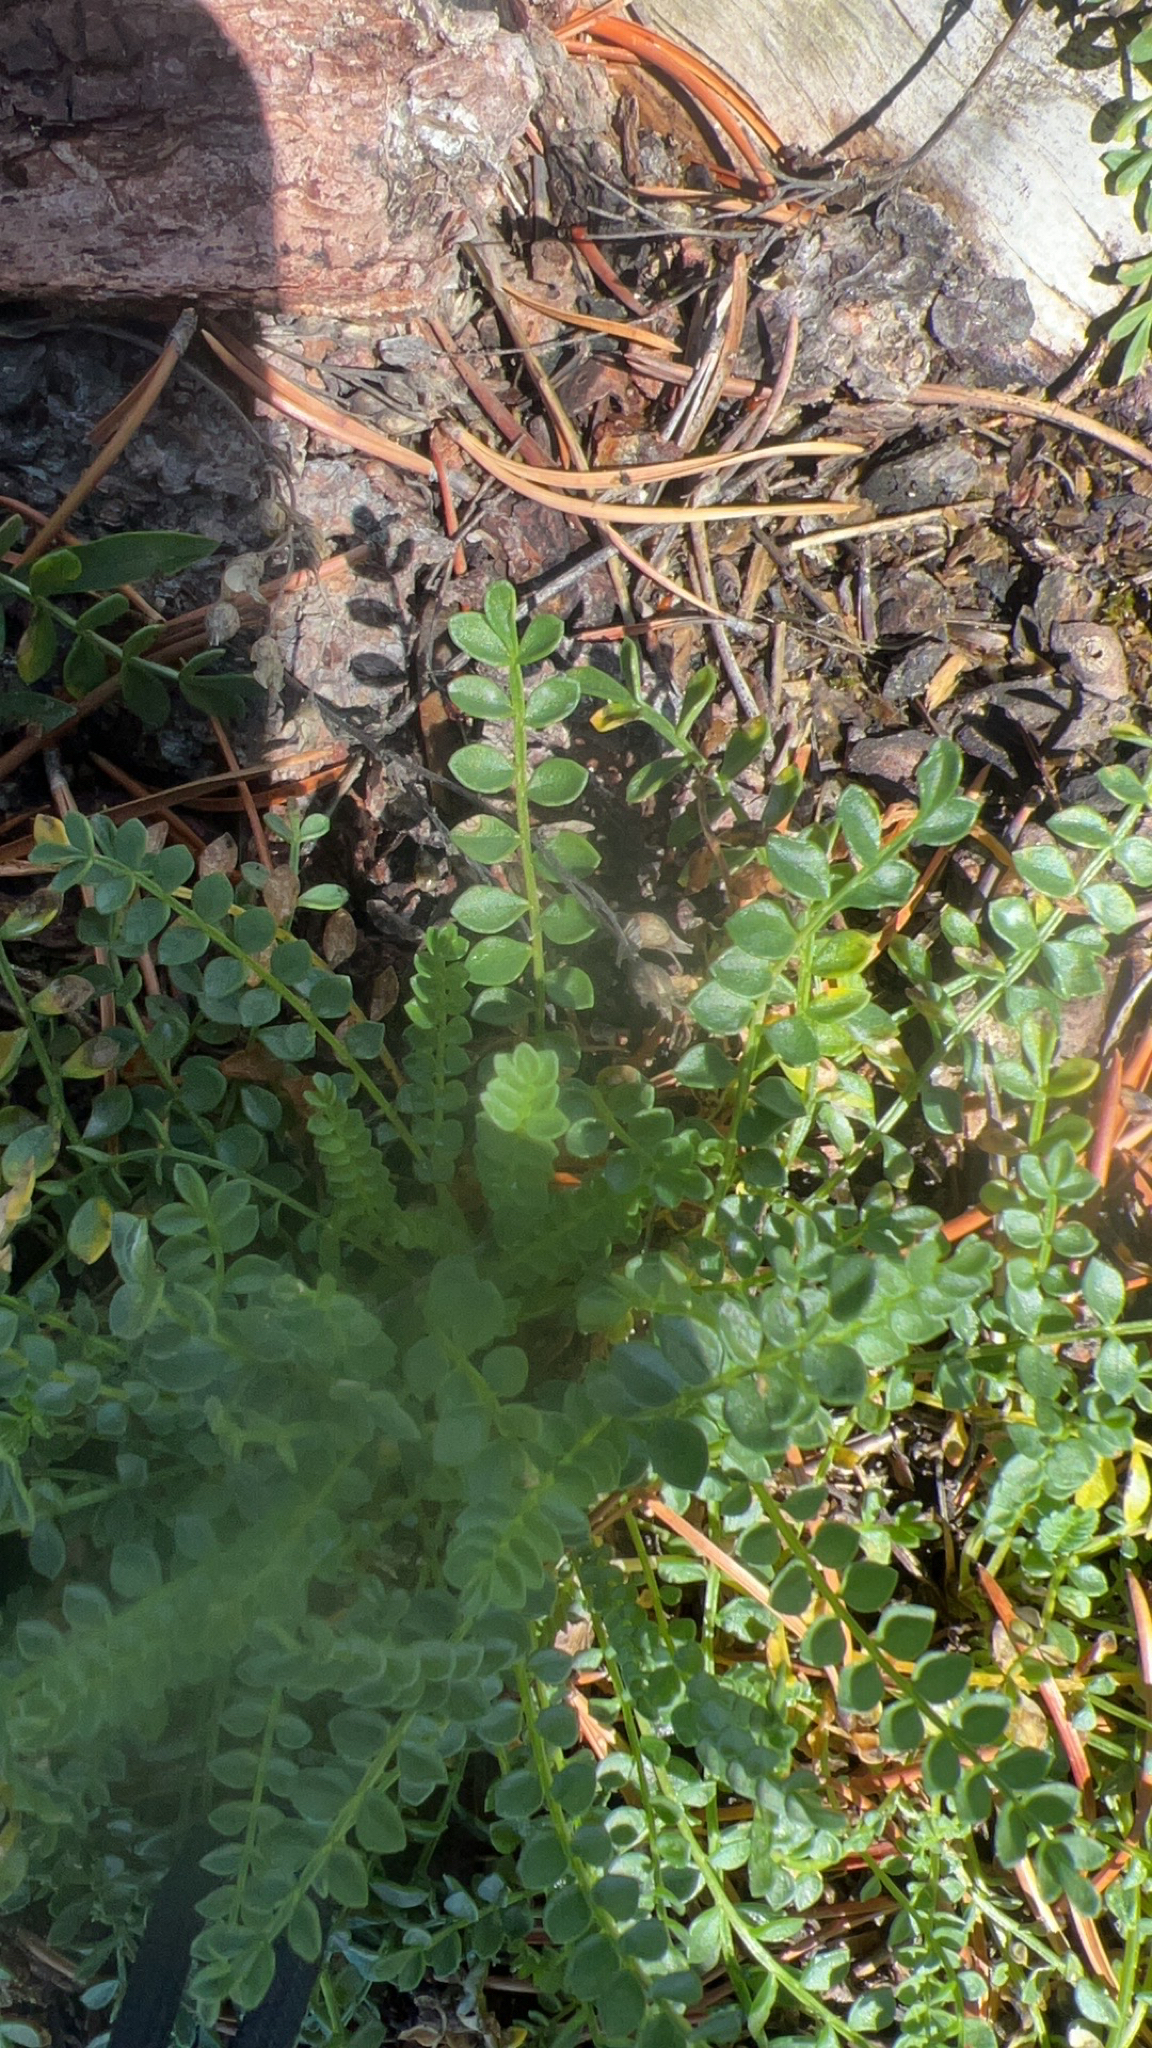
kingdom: Plantae
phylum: Tracheophyta
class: Magnoliopsida
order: Ericales
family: Polemoniaceae
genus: Polemonium
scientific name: Polemonium pulcherrimum
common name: Short jacob's-ladder
